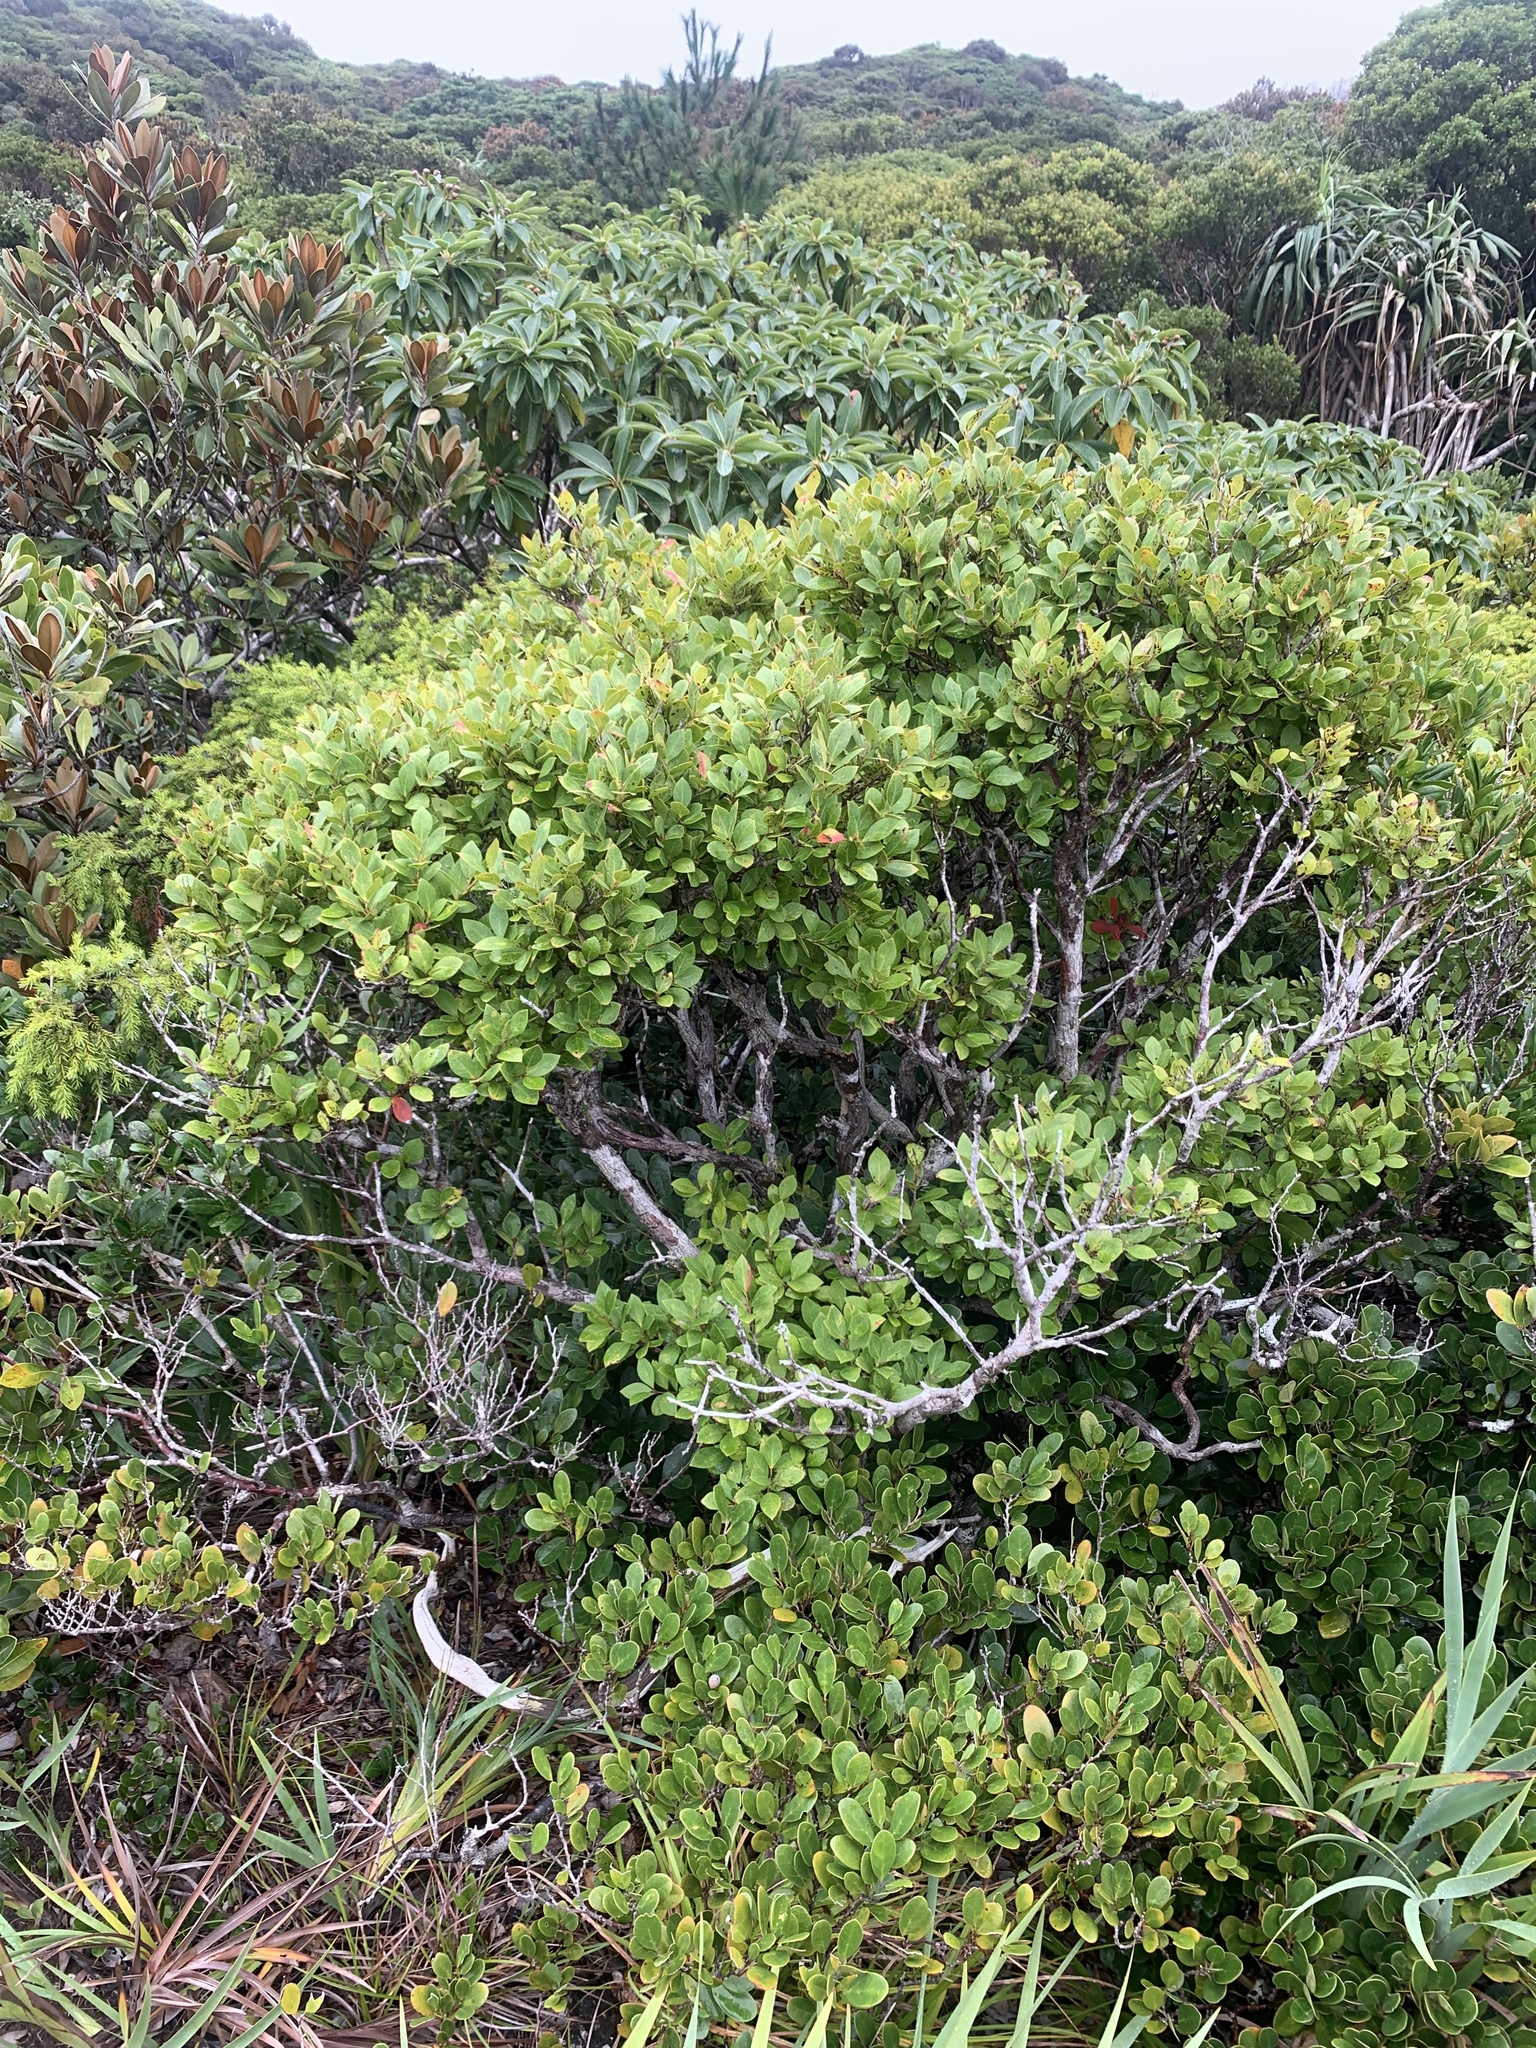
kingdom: Plantae
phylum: Tracheophyta
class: Magnoliopsida
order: Ericales
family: Ericaceae
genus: Vaccinium
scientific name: Vaccinium boninense
